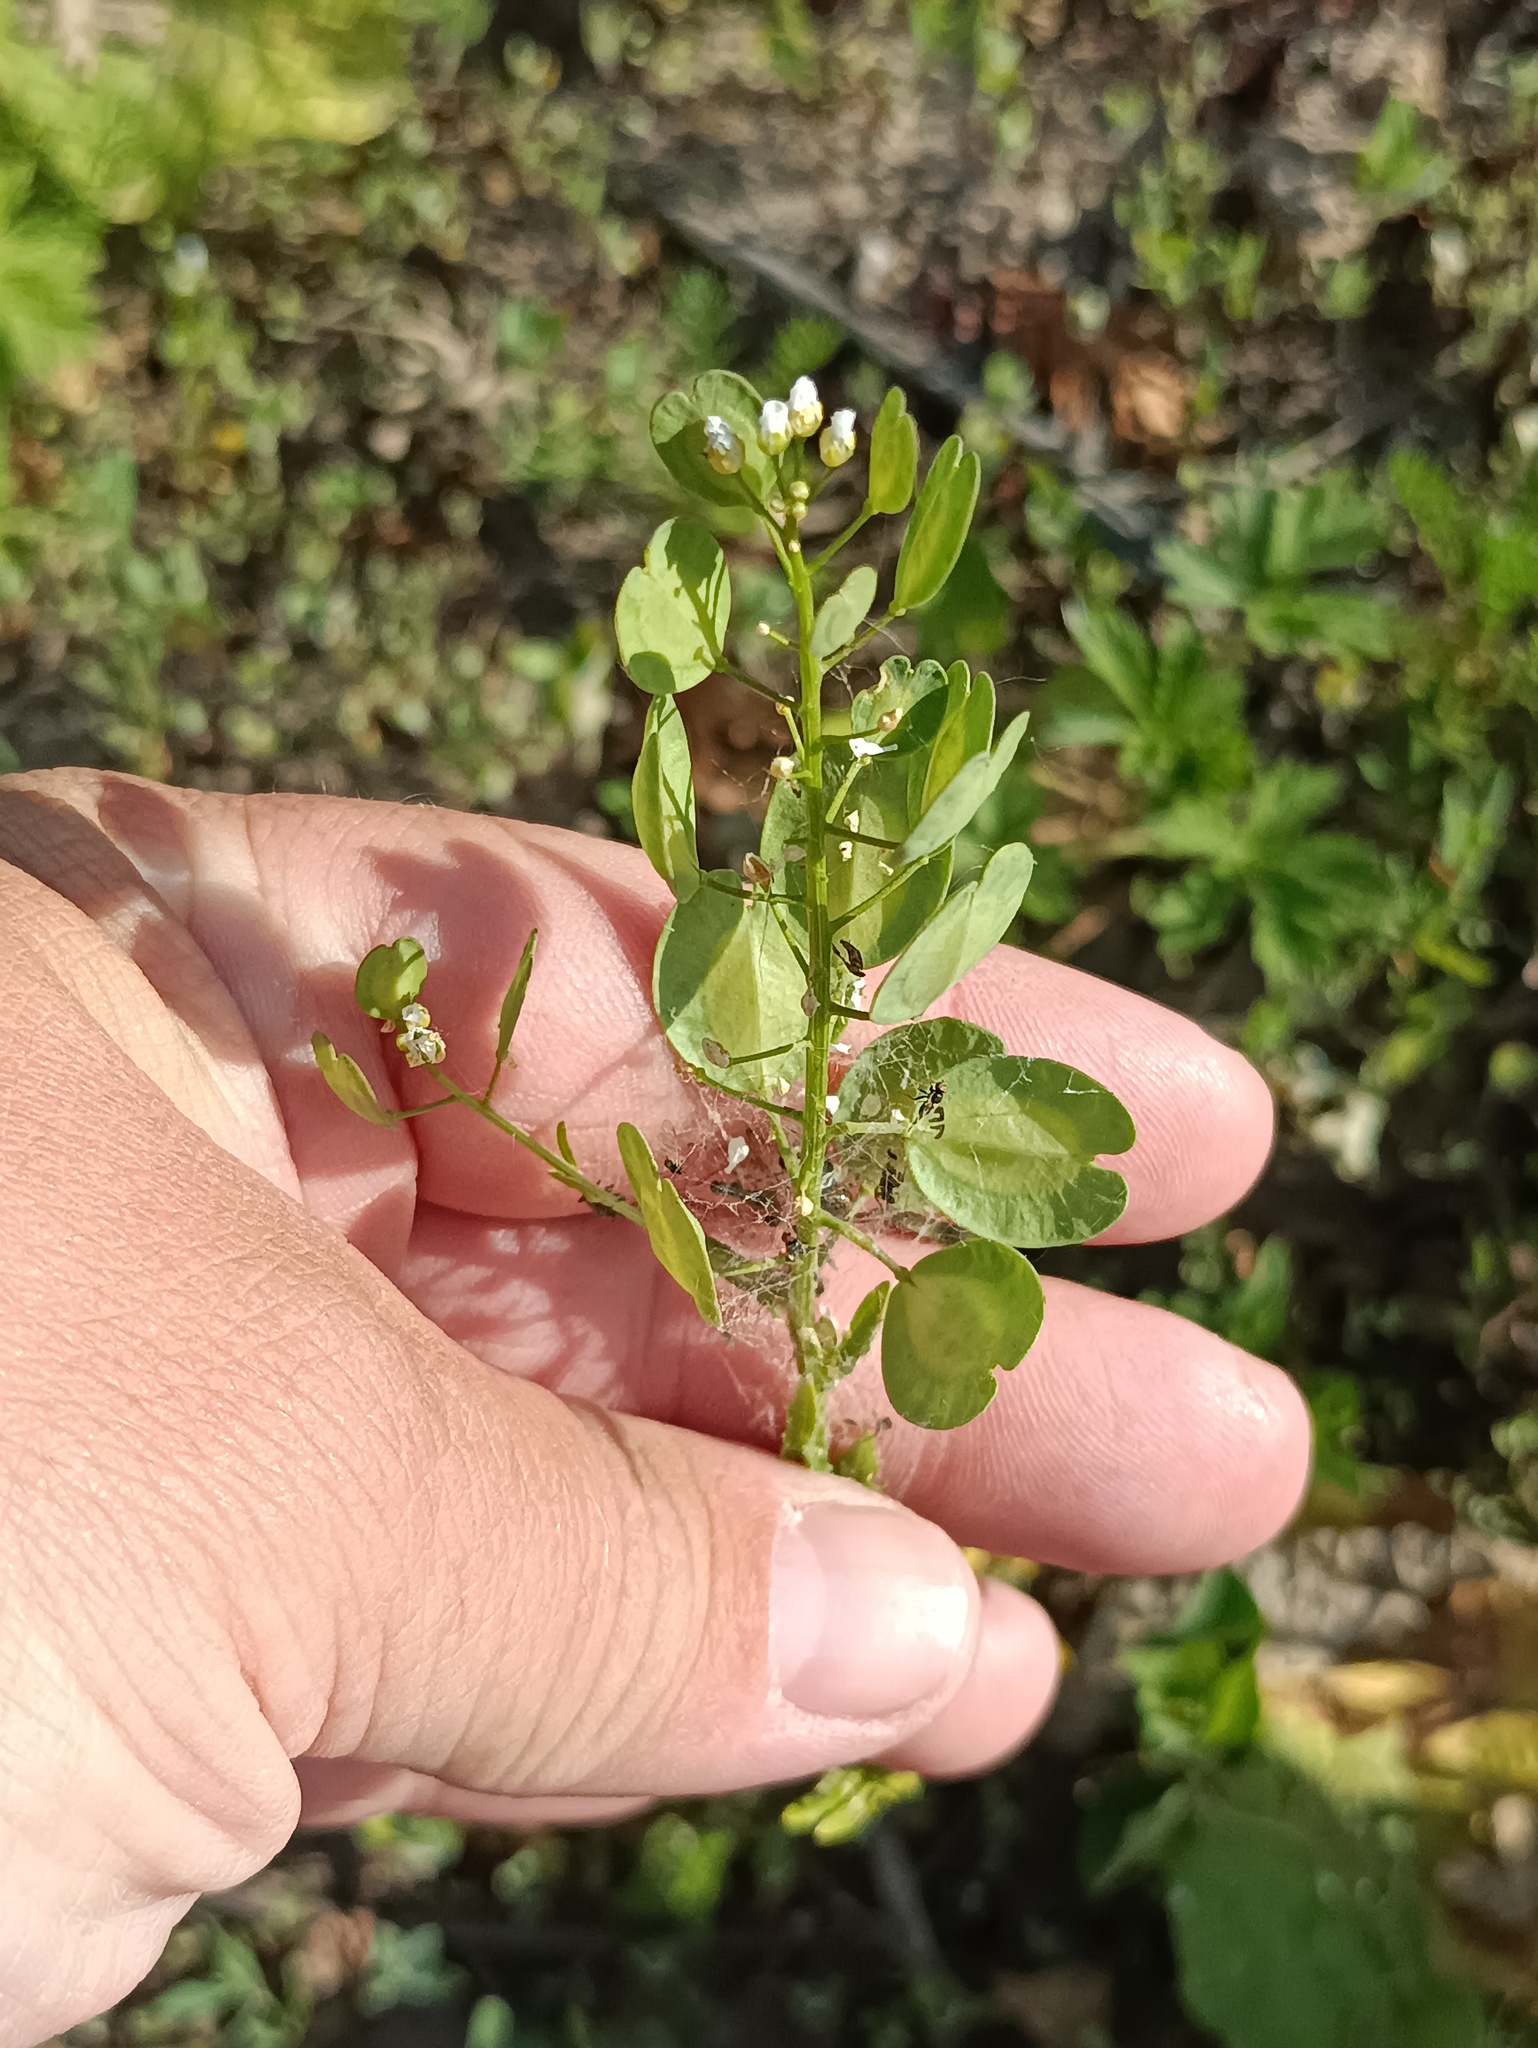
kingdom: Plantae
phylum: Tracheophyta
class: Magnoliopsida
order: Brassicales
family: Brassicaceae
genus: Thlaspi
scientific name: Thlaspi arvense
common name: Field pennycress
